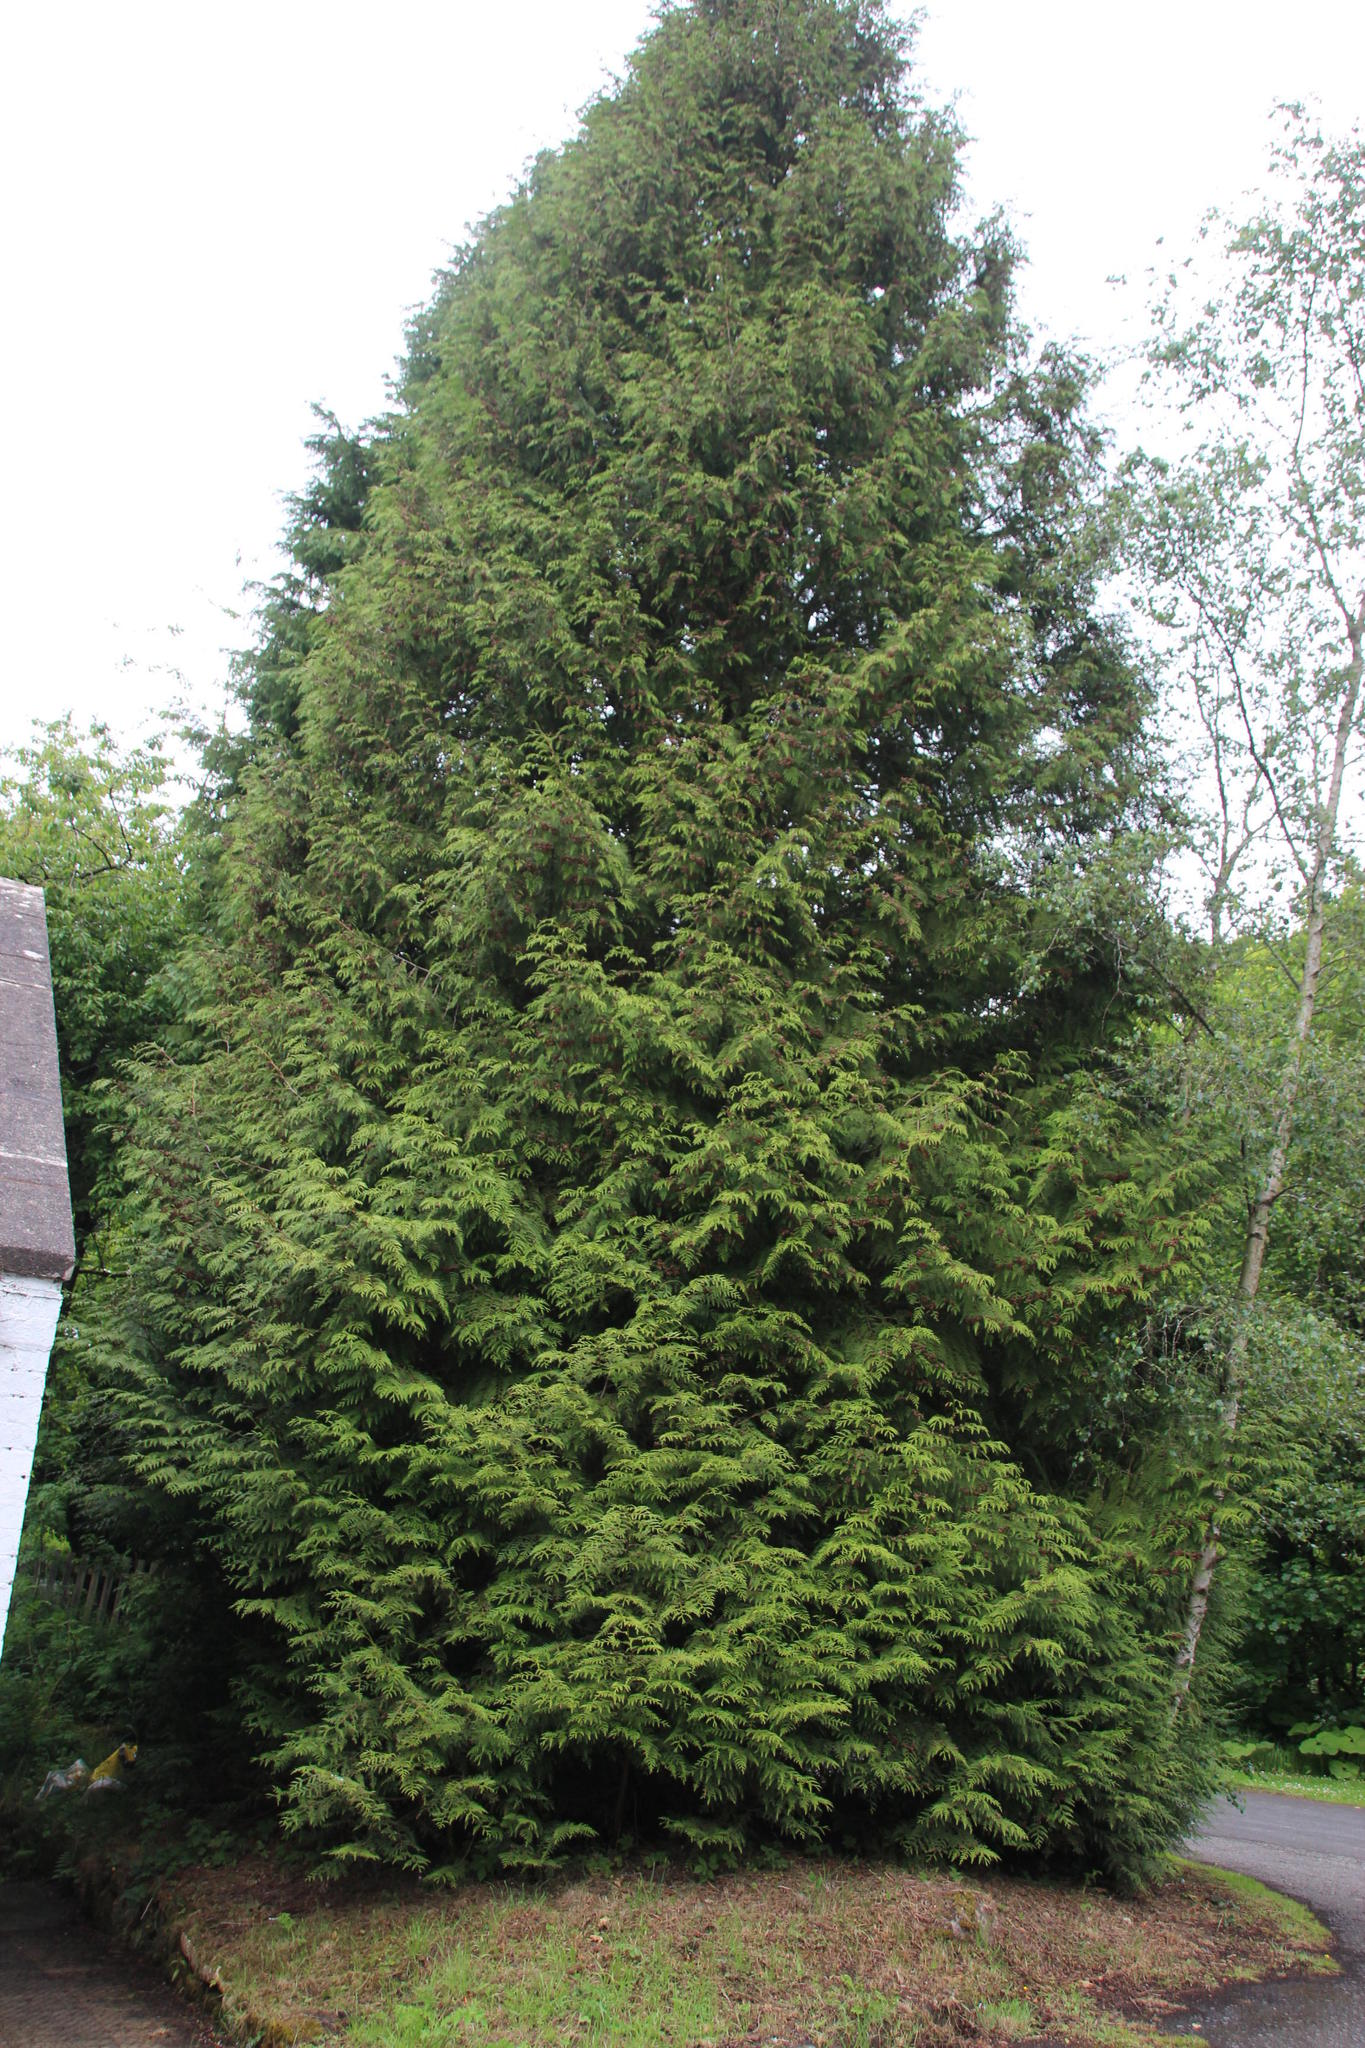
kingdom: Plantae
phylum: Tracheophyta
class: Pinopsida
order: Pinales
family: Cupressaceae
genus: Thuja
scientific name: Thuja plicata
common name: Western red-cedar
